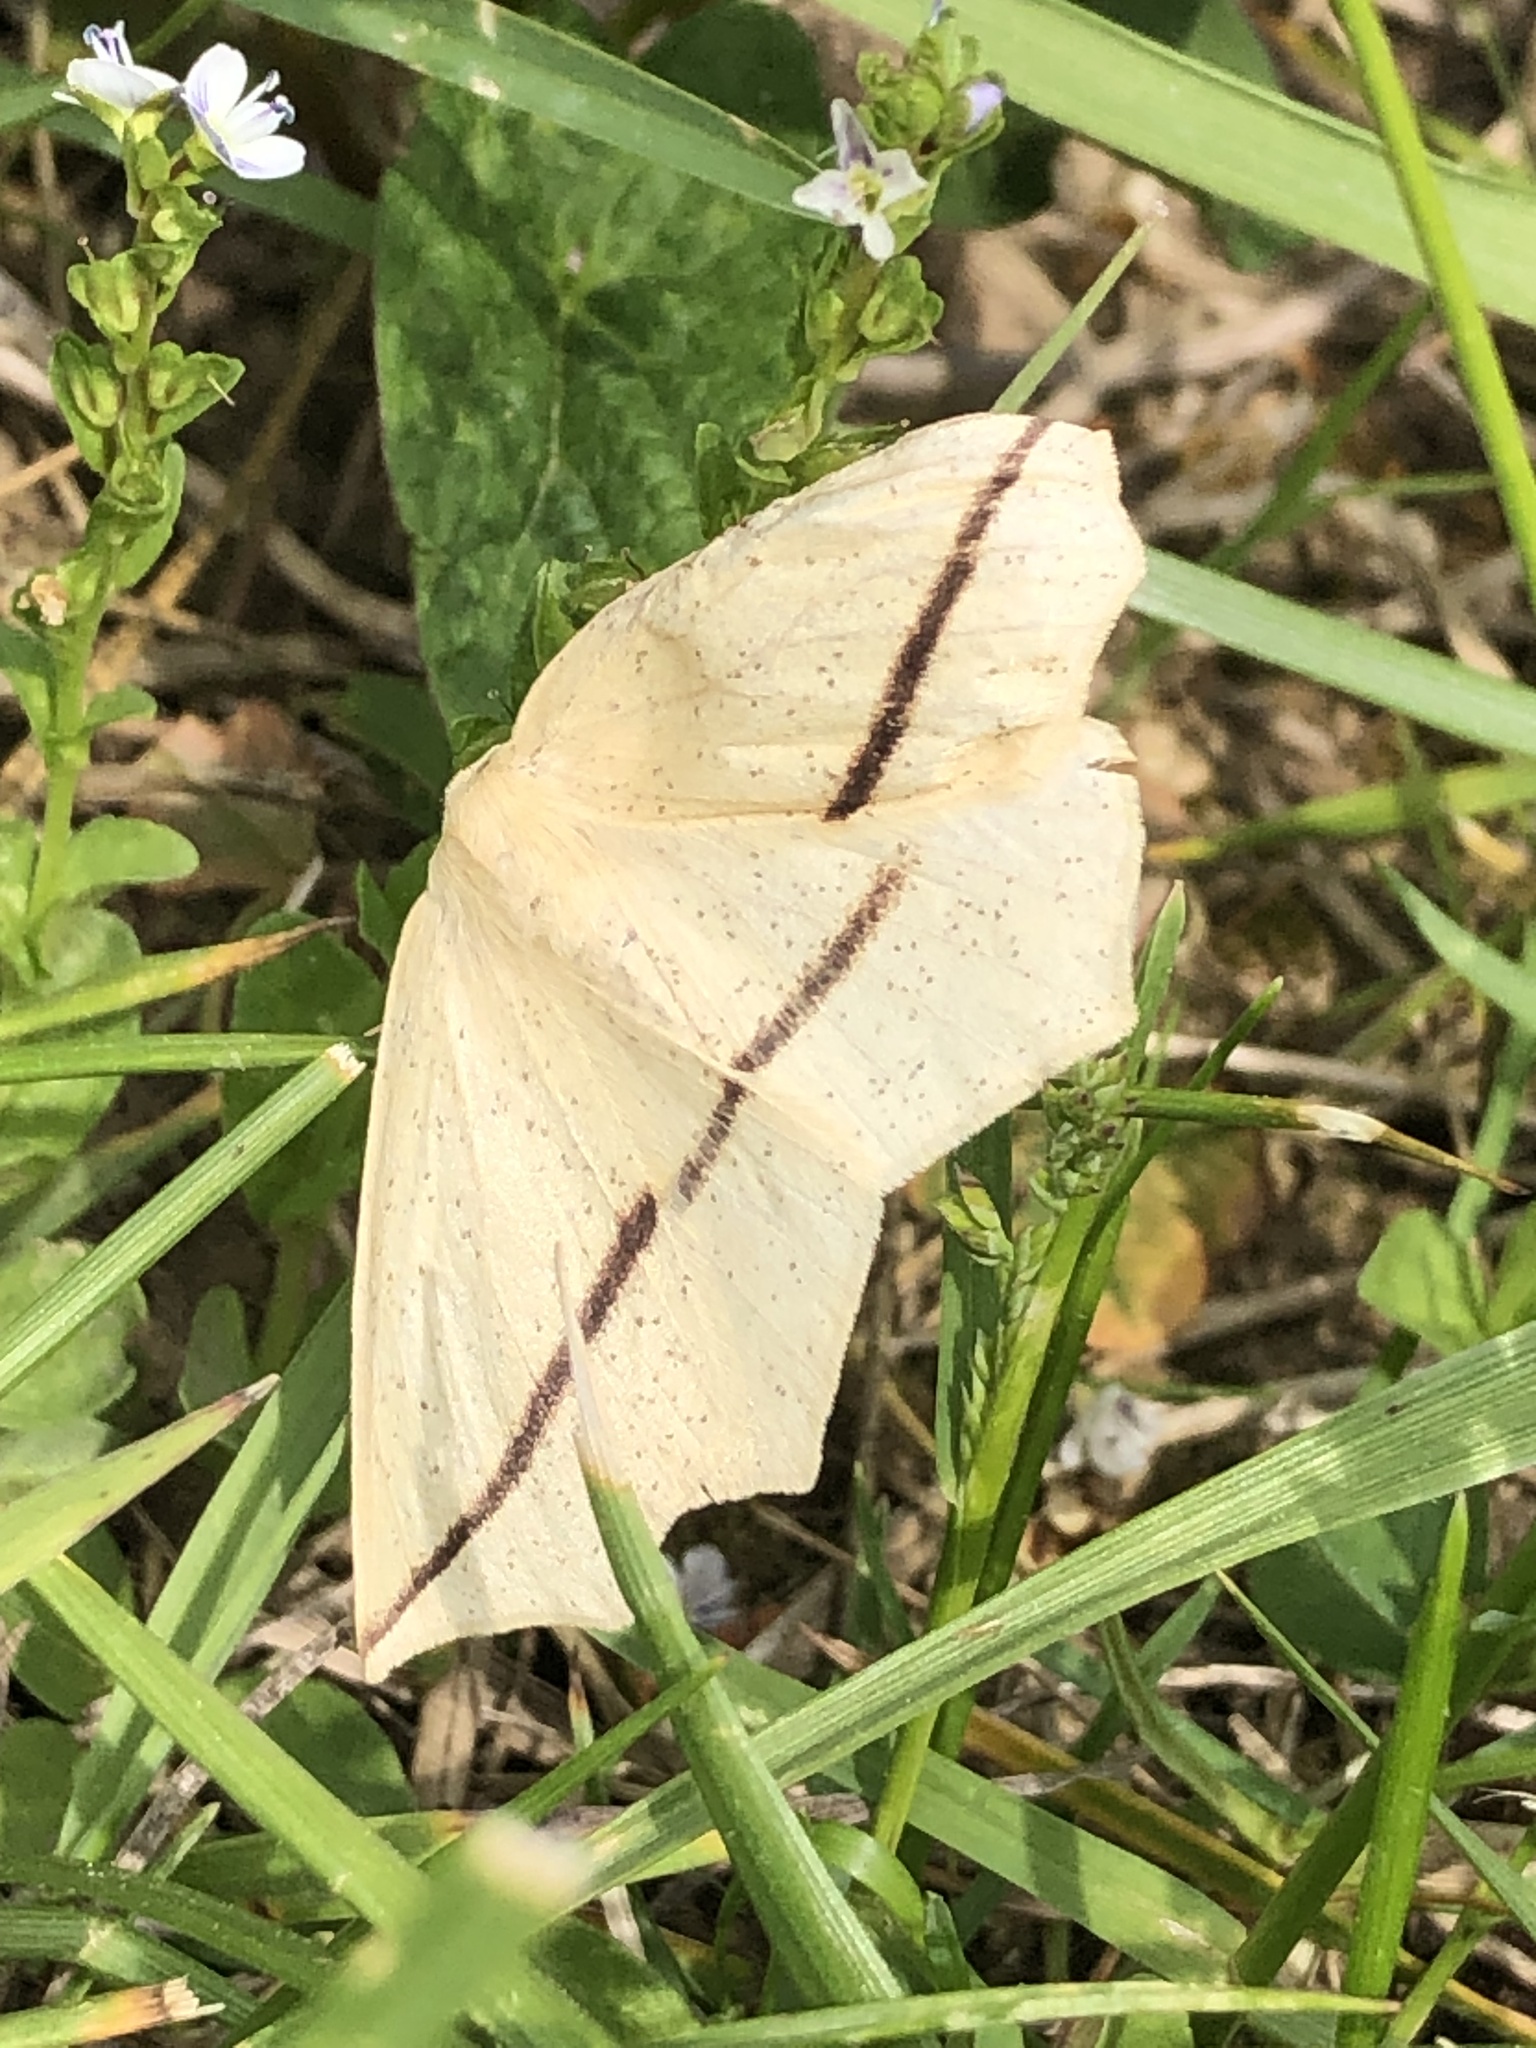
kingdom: Animalia
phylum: Arthropoda
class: Insecta
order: Lepidoptera
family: Geometridae
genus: Tetracis
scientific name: Tetracis crocallata
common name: Yellow slant-line
